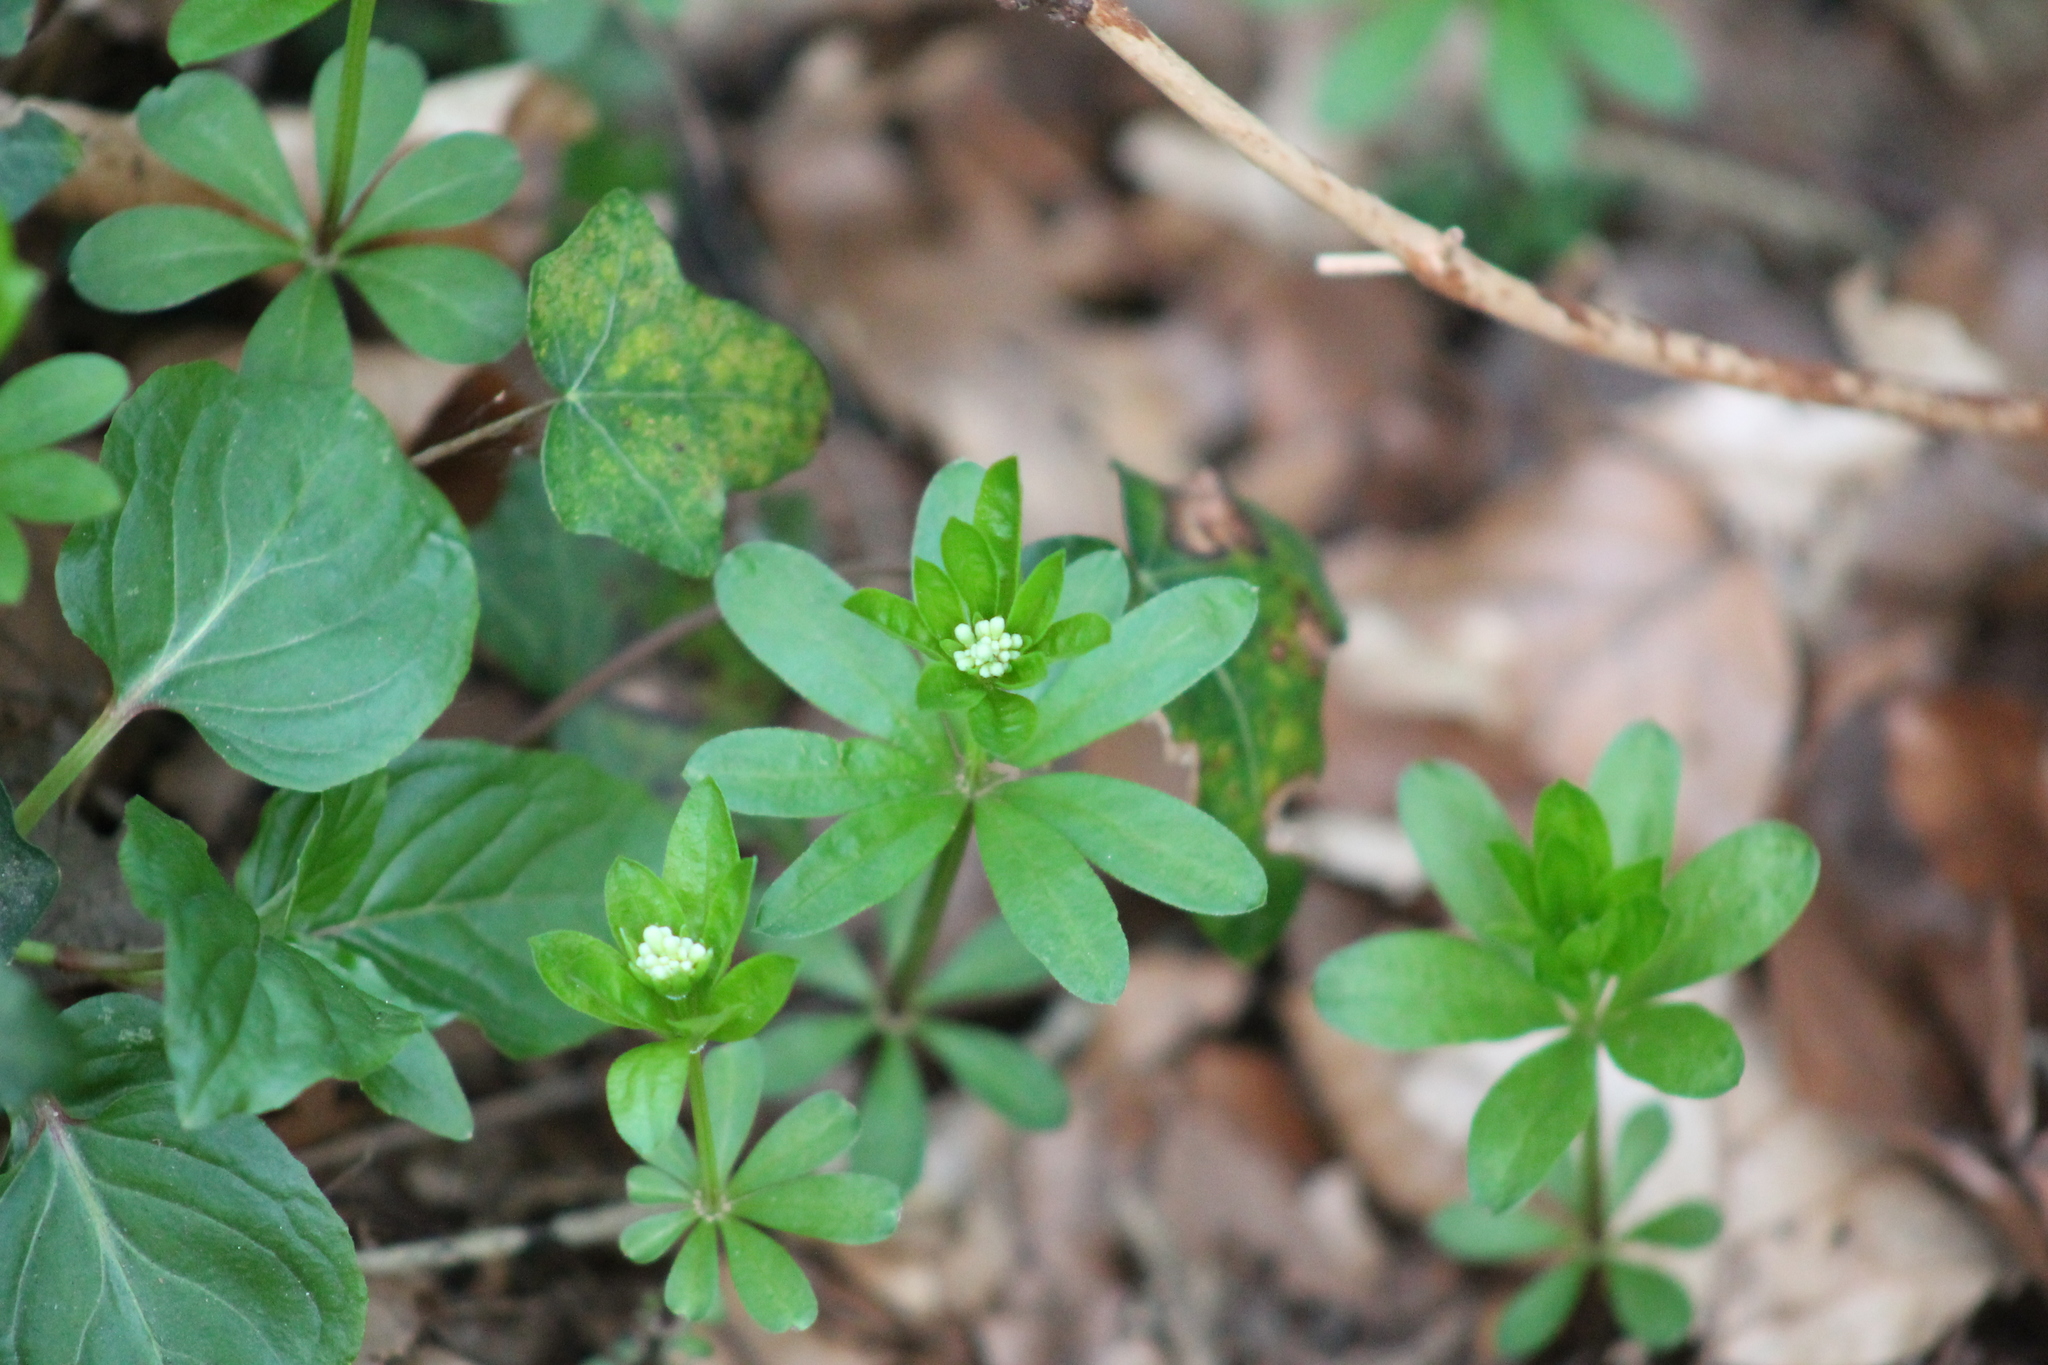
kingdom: Plantae
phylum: Tracheophyta
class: Magnoliopsida
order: Gentianales
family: Rubiaceae
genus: Galium
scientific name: Galium odoratum
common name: Sweet woodruff
